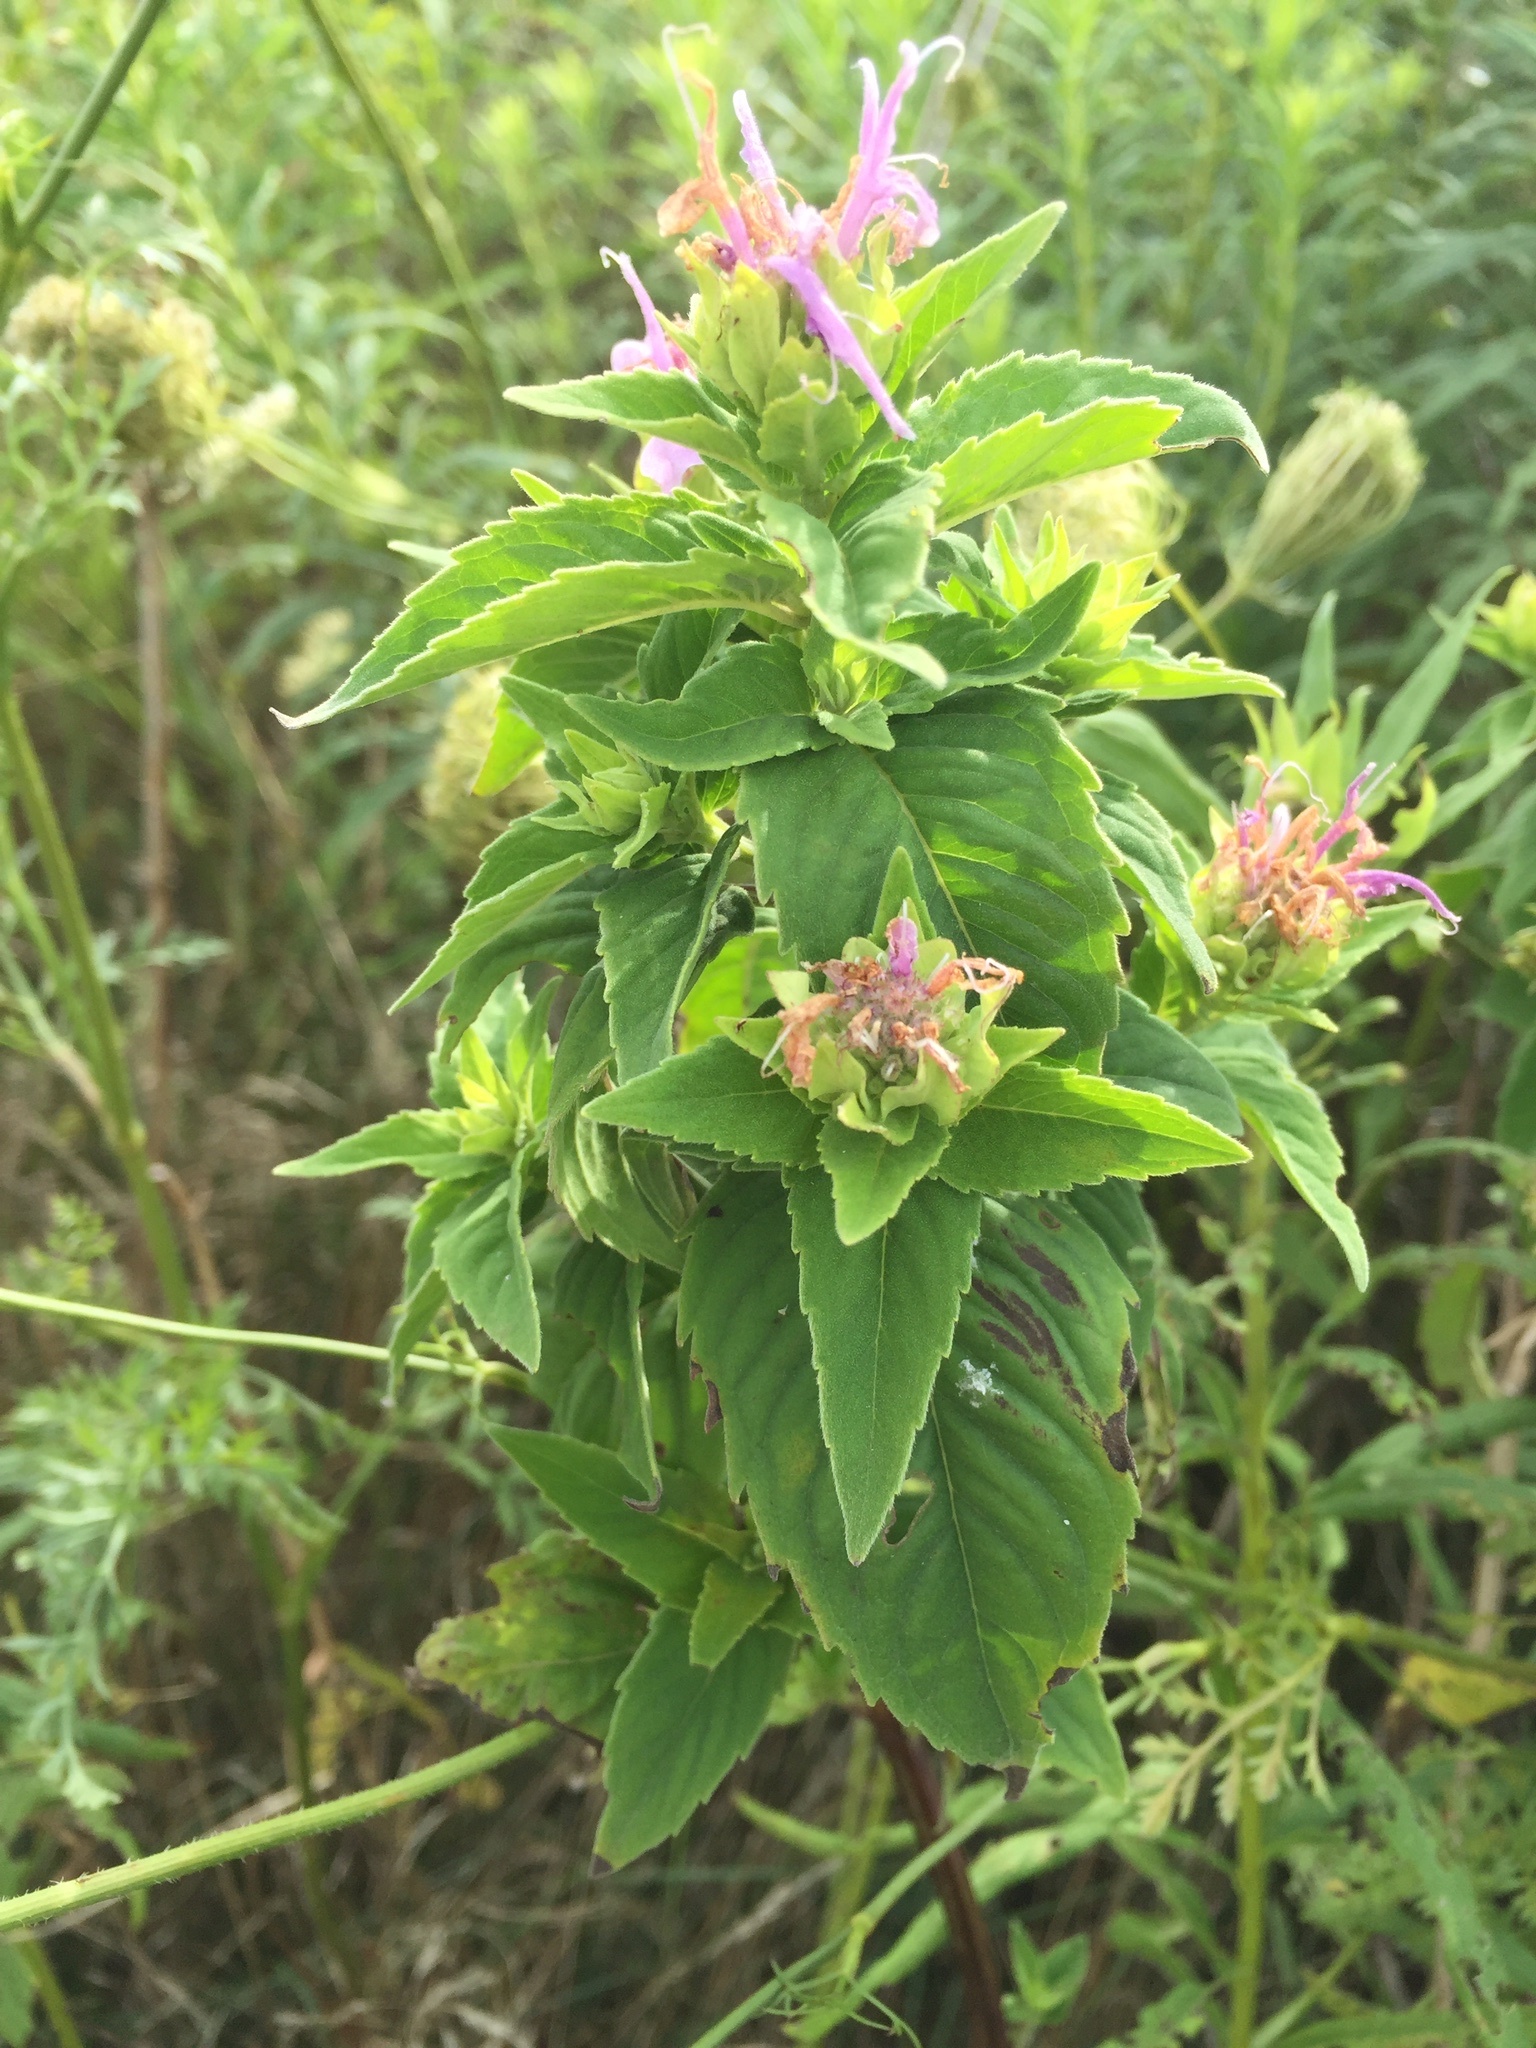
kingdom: Plantae
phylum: Tracheophyta
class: Magnoliopsida
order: Lamiales
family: Lamiaceae
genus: Monarda
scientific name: Monarda fistulosa
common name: Purple beebalm
